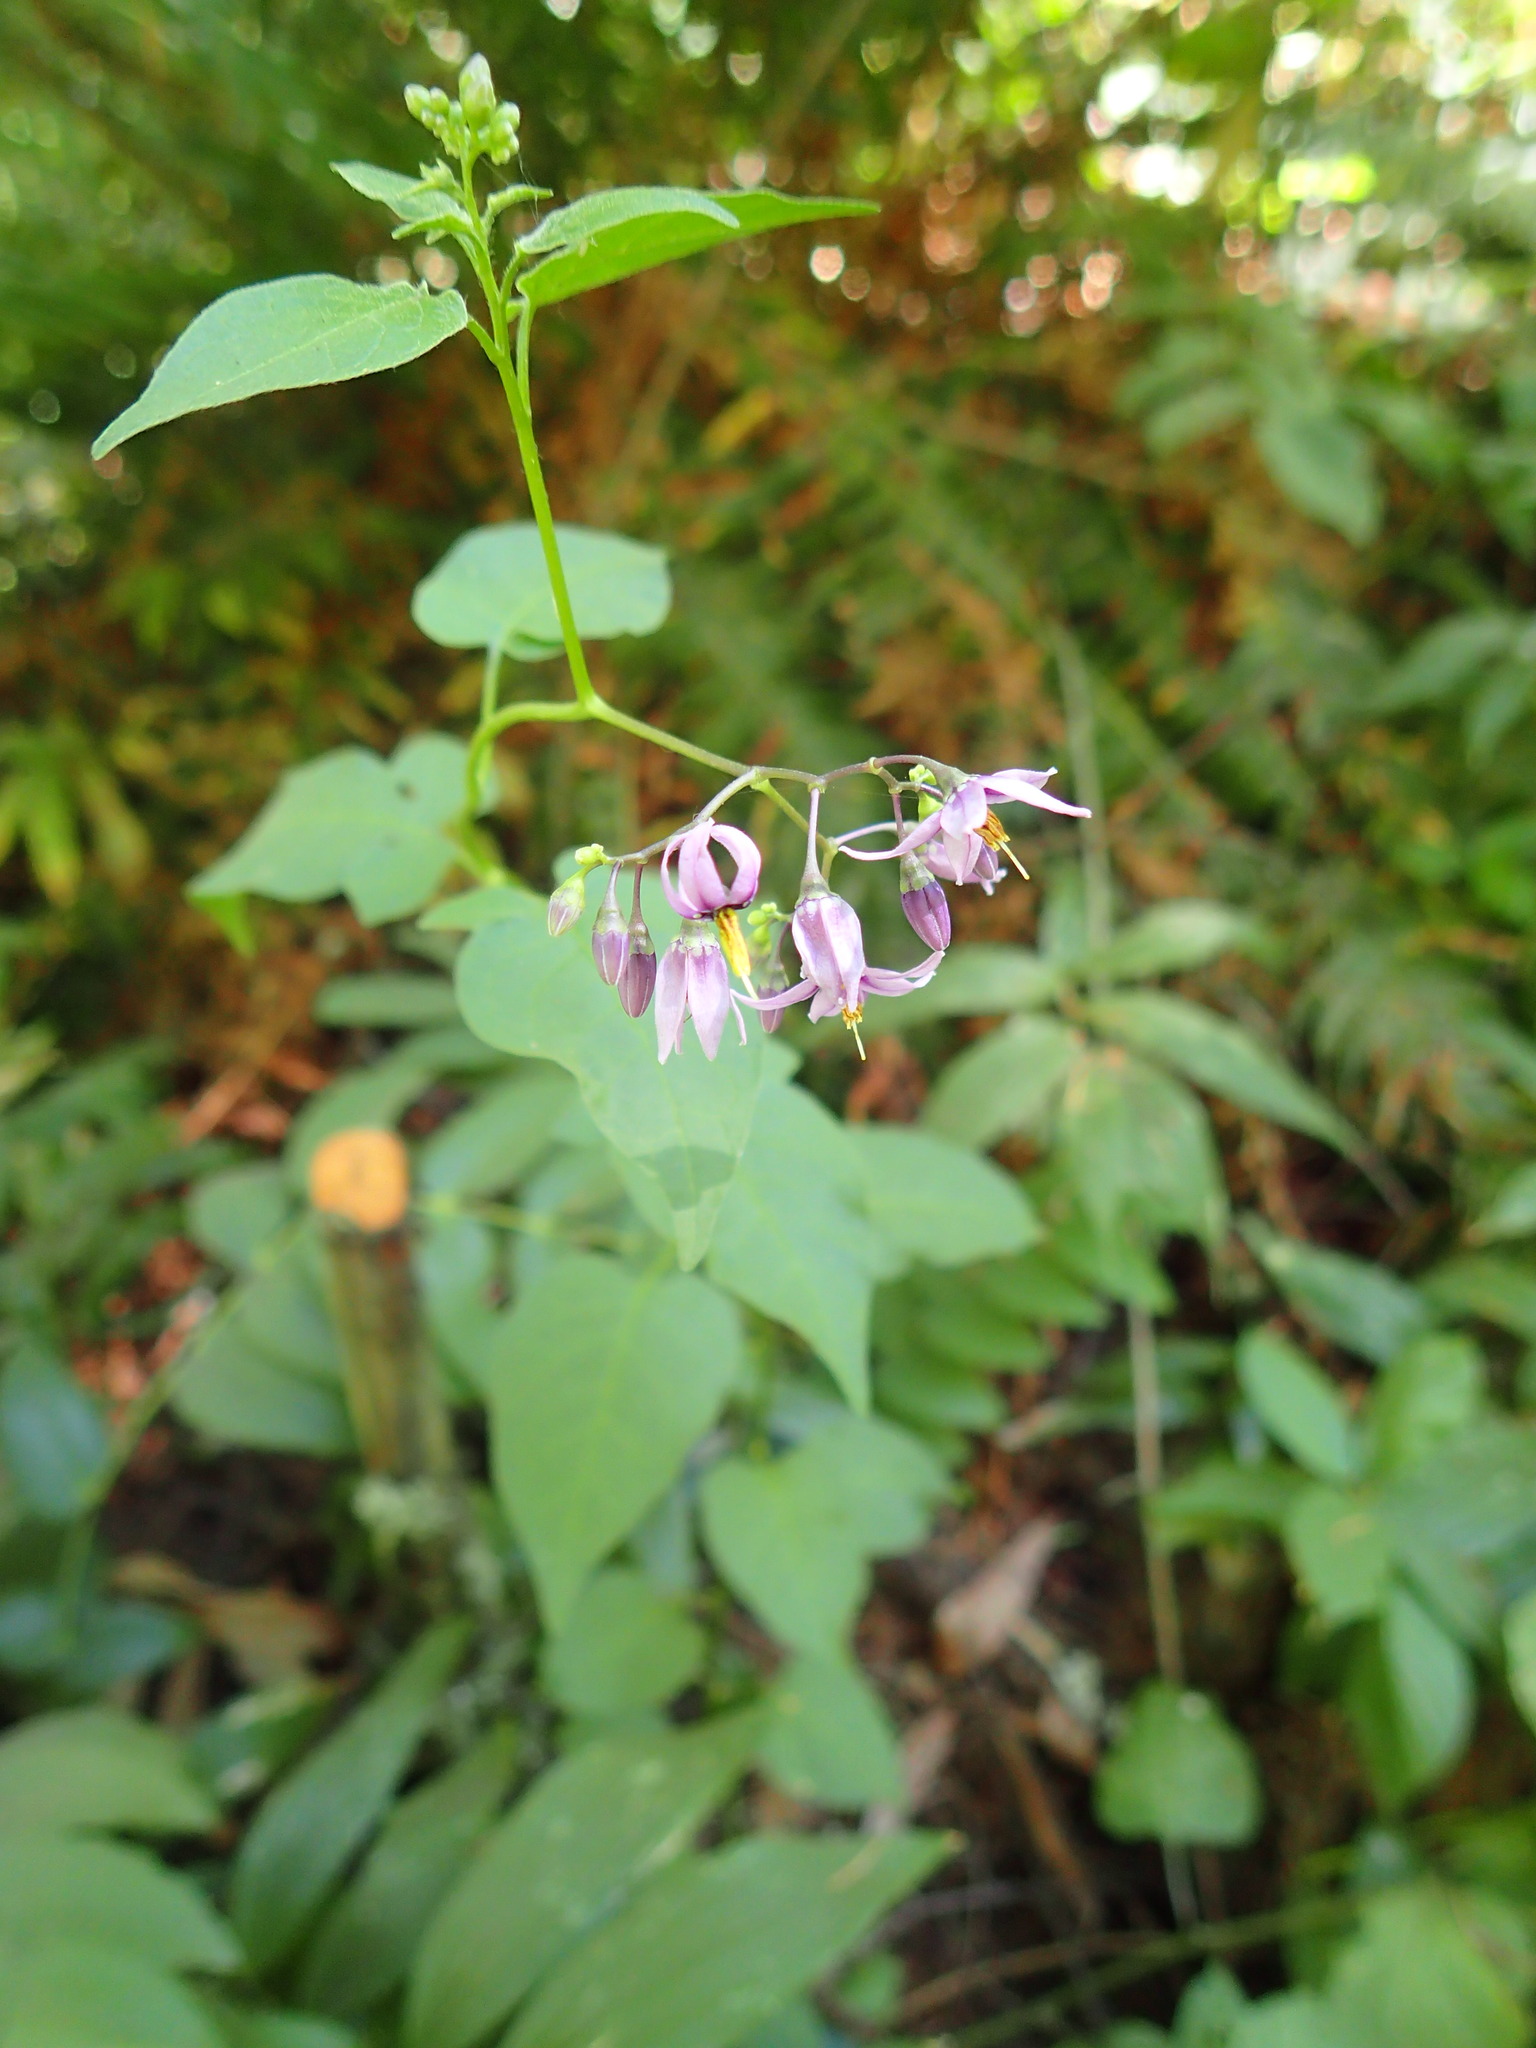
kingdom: Plantae
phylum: Tracheophyta
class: Magnoliopsida
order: Solanales
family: Solanaceae
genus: Solanum
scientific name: Solanum dulcamara
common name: Climbing nightshade
